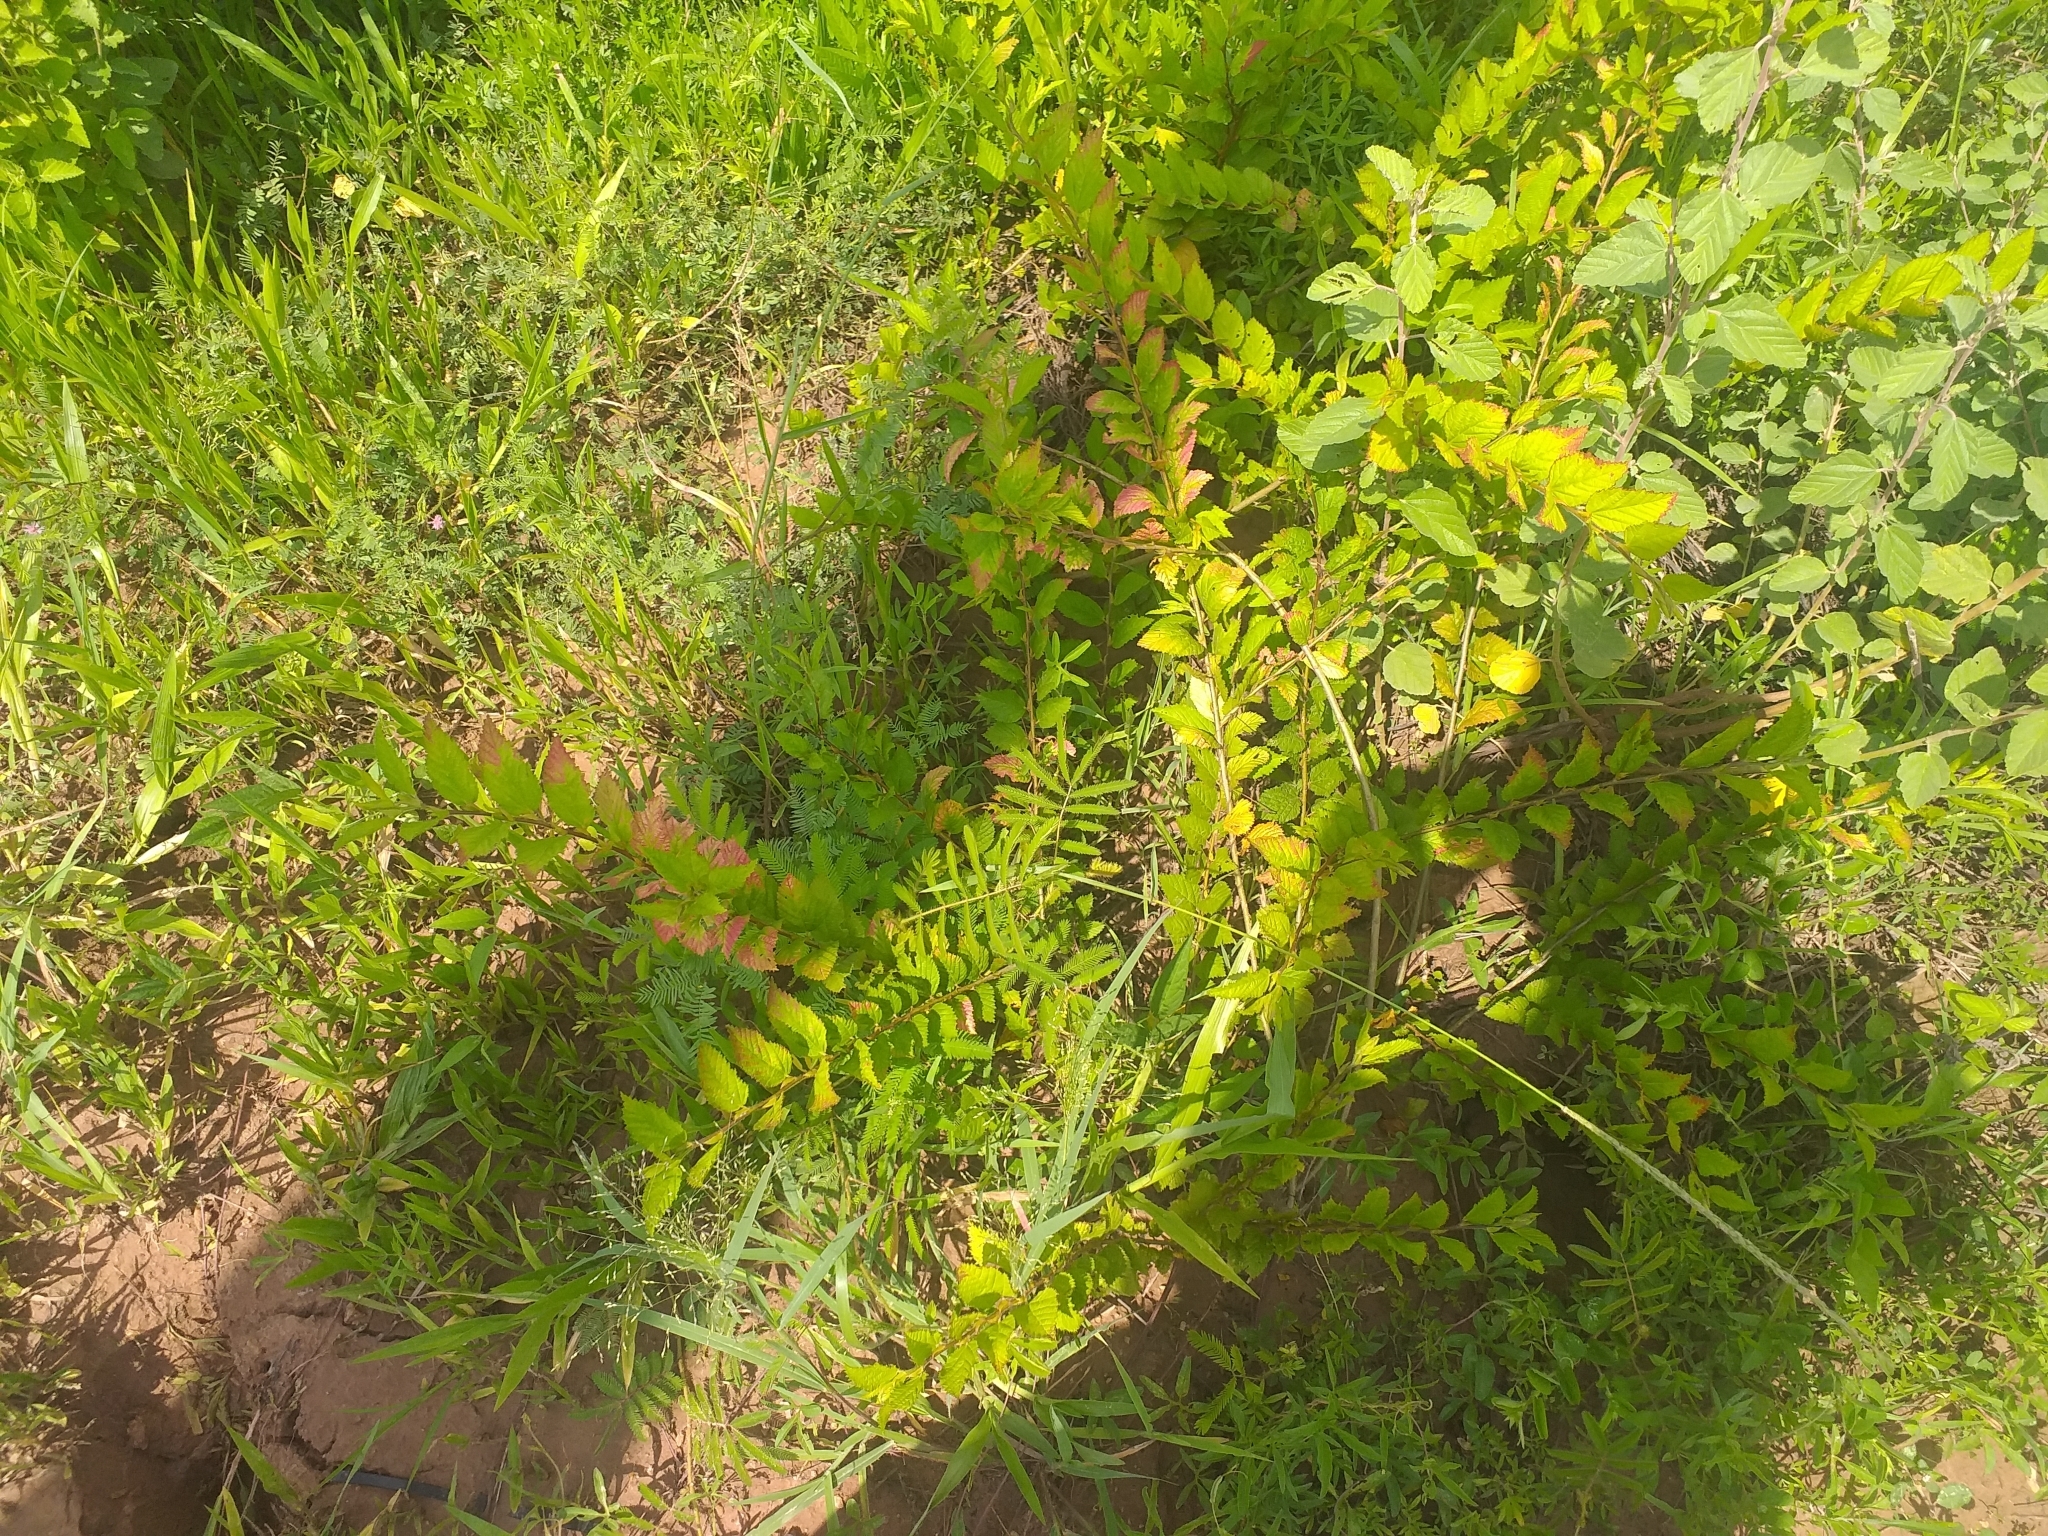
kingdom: Plantae
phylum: Tracheophyta
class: Magnoliopsida
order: Malvales
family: Malvaceae
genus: Sida
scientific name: Sida glomerata
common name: Clustered fanpetals
